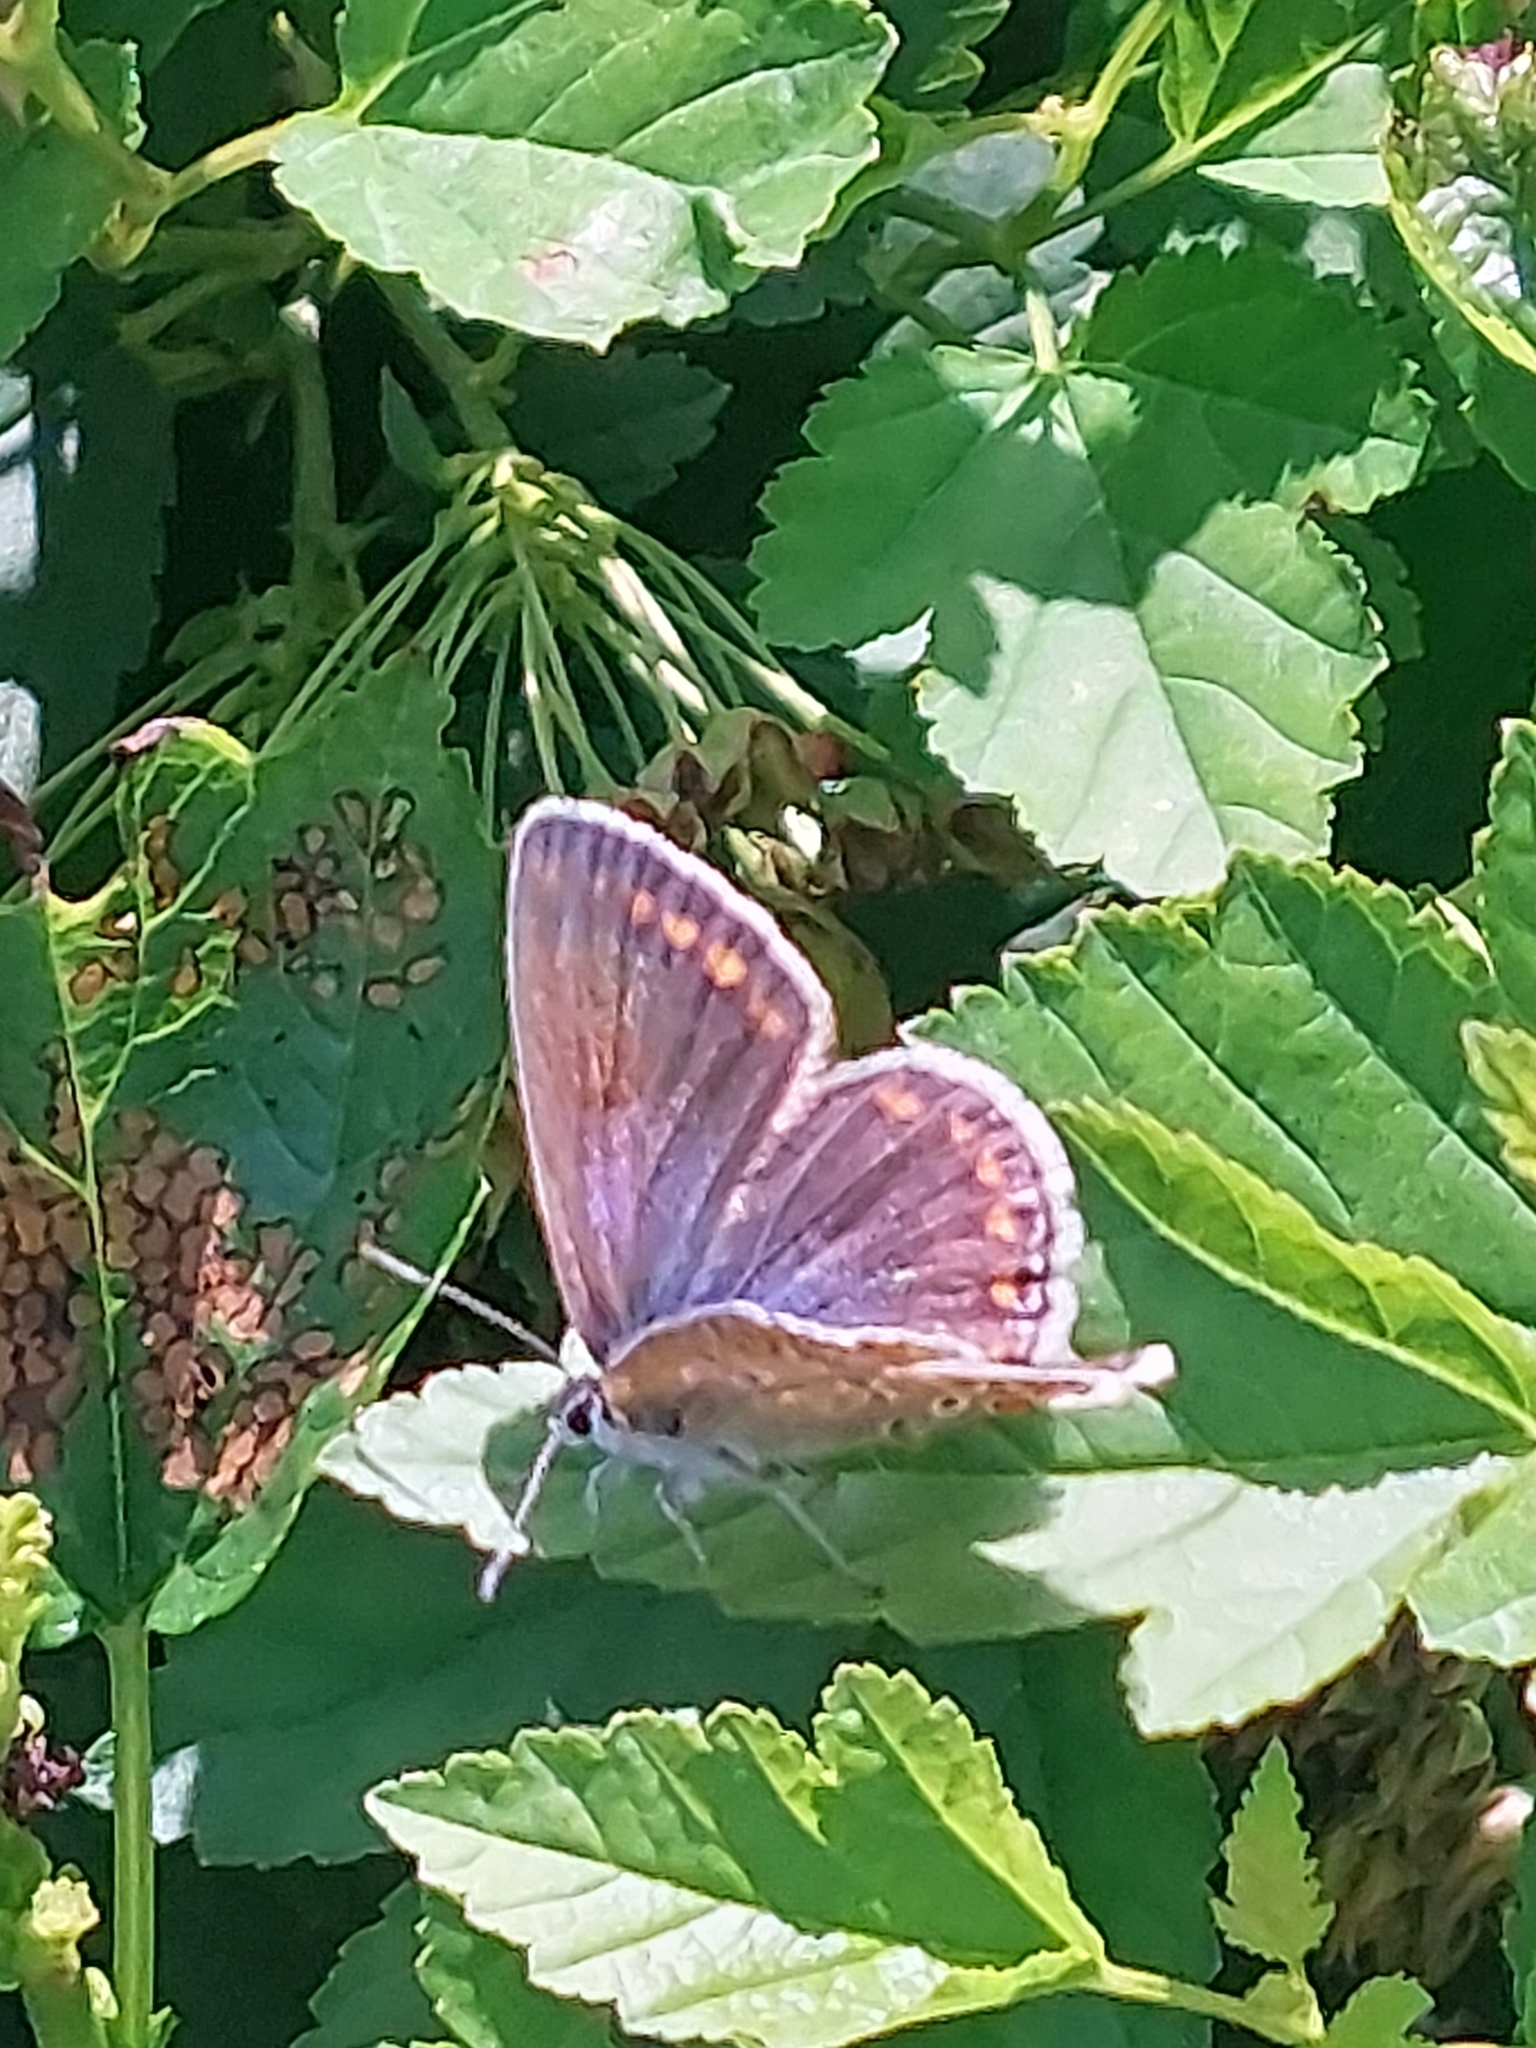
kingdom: Animalia
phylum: Arthropoda
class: Insecta
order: Lepidoptera
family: Lycaenidae
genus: Polyommatus
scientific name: Polyommatus icarus
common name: Common blue
